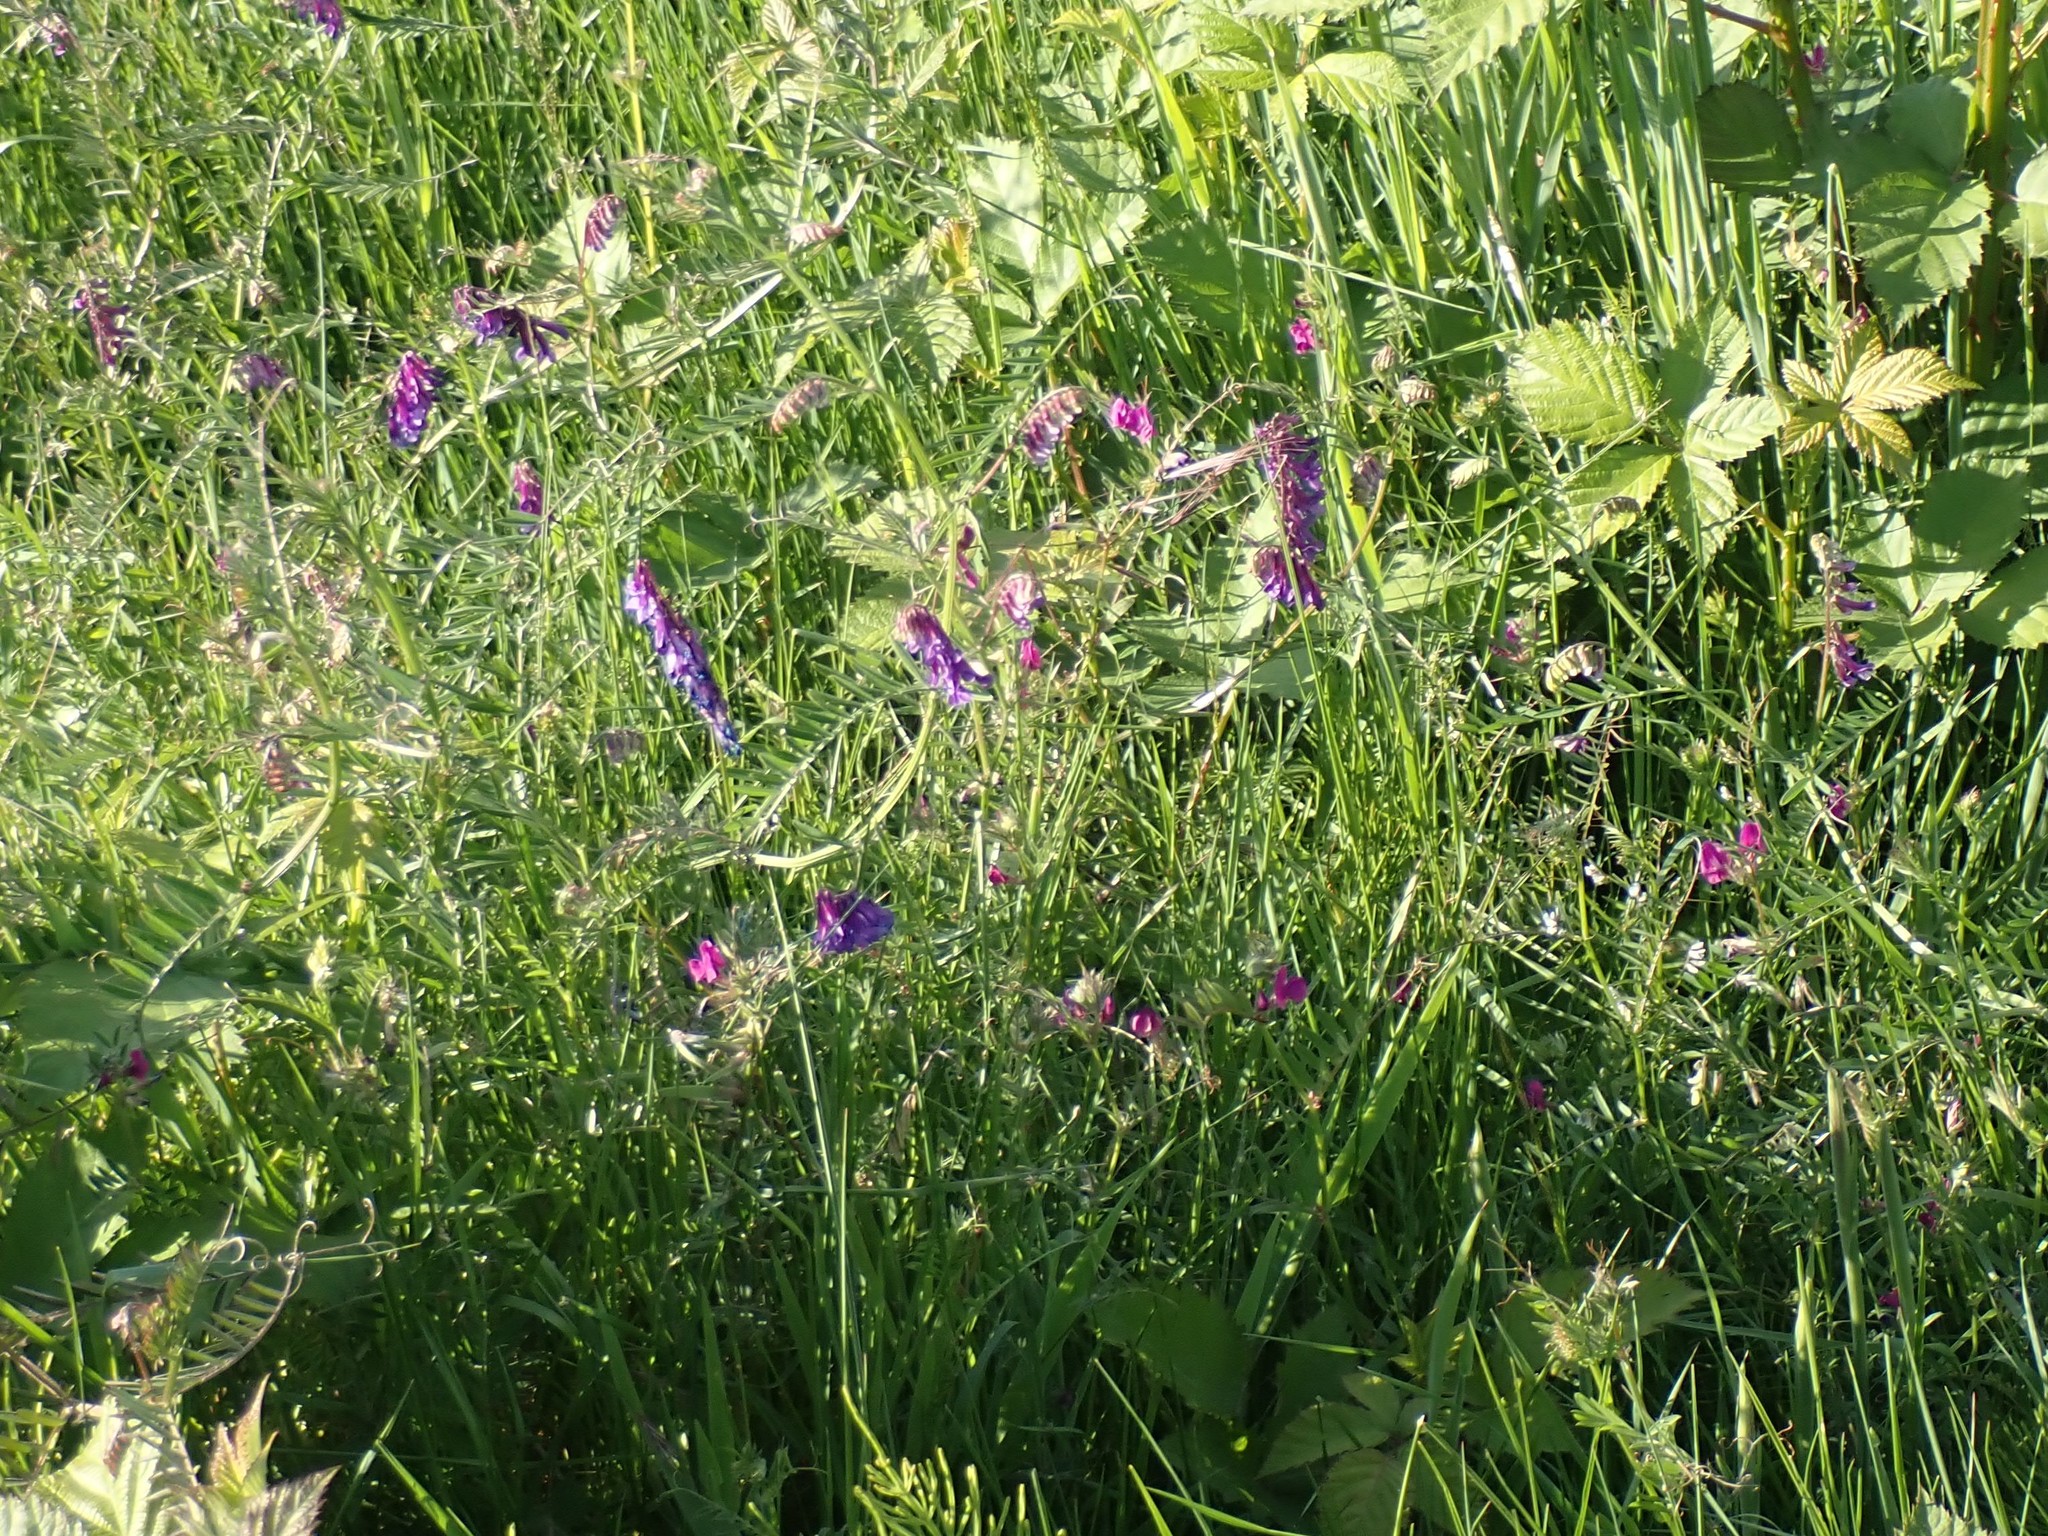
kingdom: Plantae
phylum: Tracheophyta
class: Magnoliopsida
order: Fabales
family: Fabaceae
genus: Vicia
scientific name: Vicia villosa
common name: Fodder vetch
